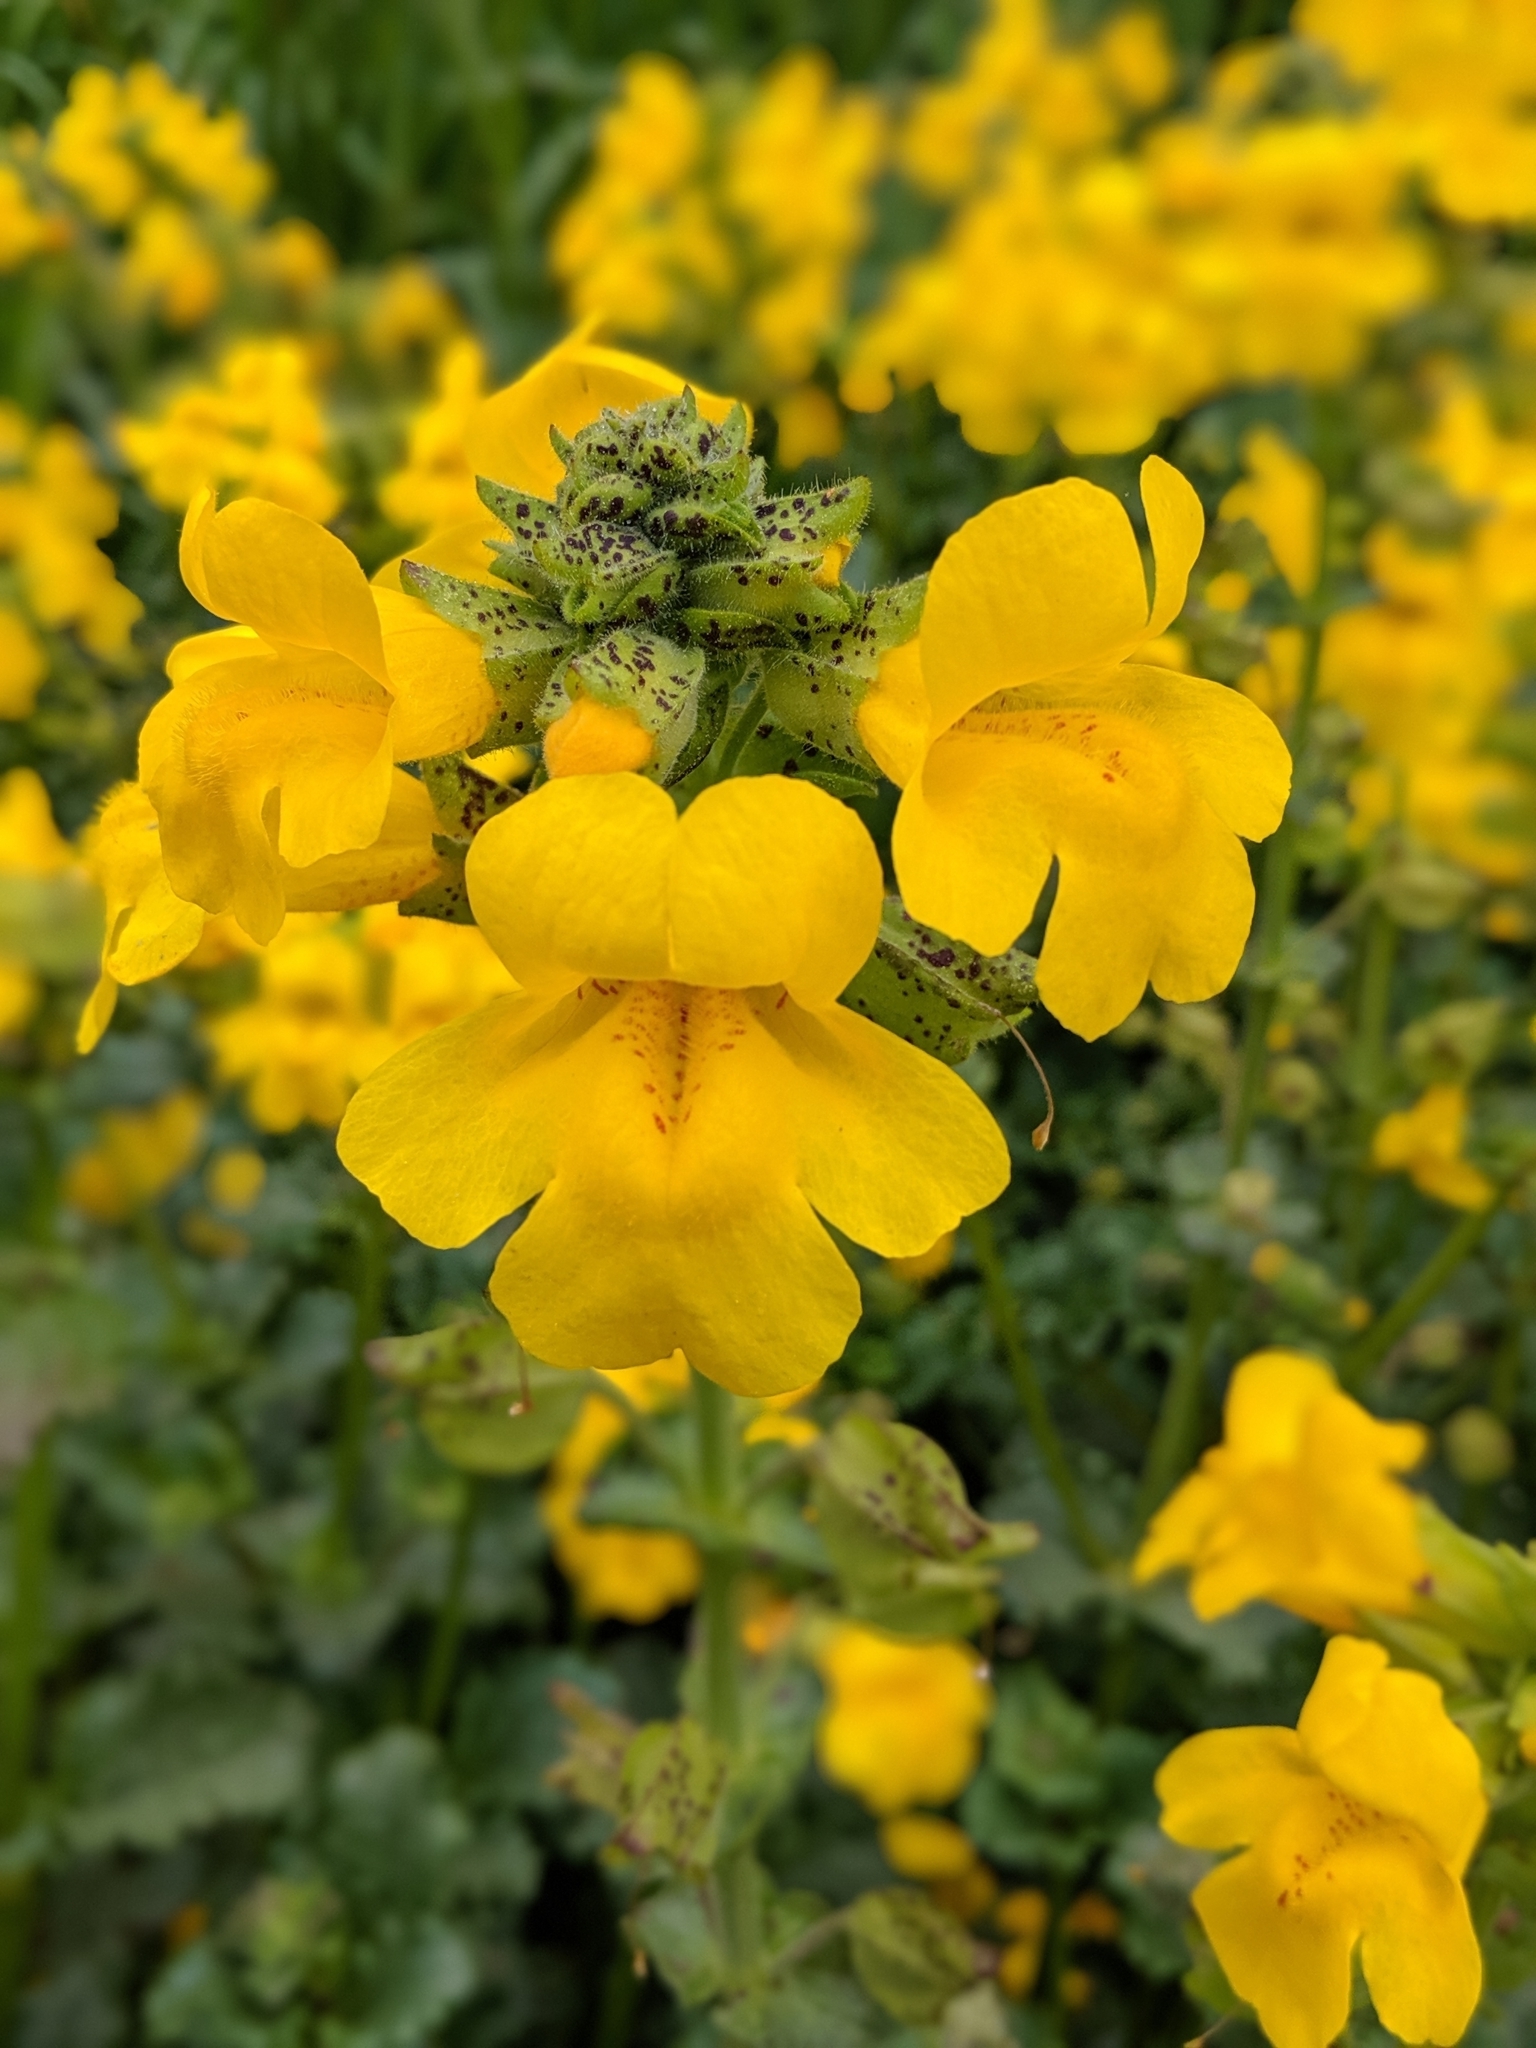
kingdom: Plantae
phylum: Tracheophyta
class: Magnoliopsida
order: Lamiales
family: Phrymaceae
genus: Erythranthe
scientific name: Erythranthe grandis
